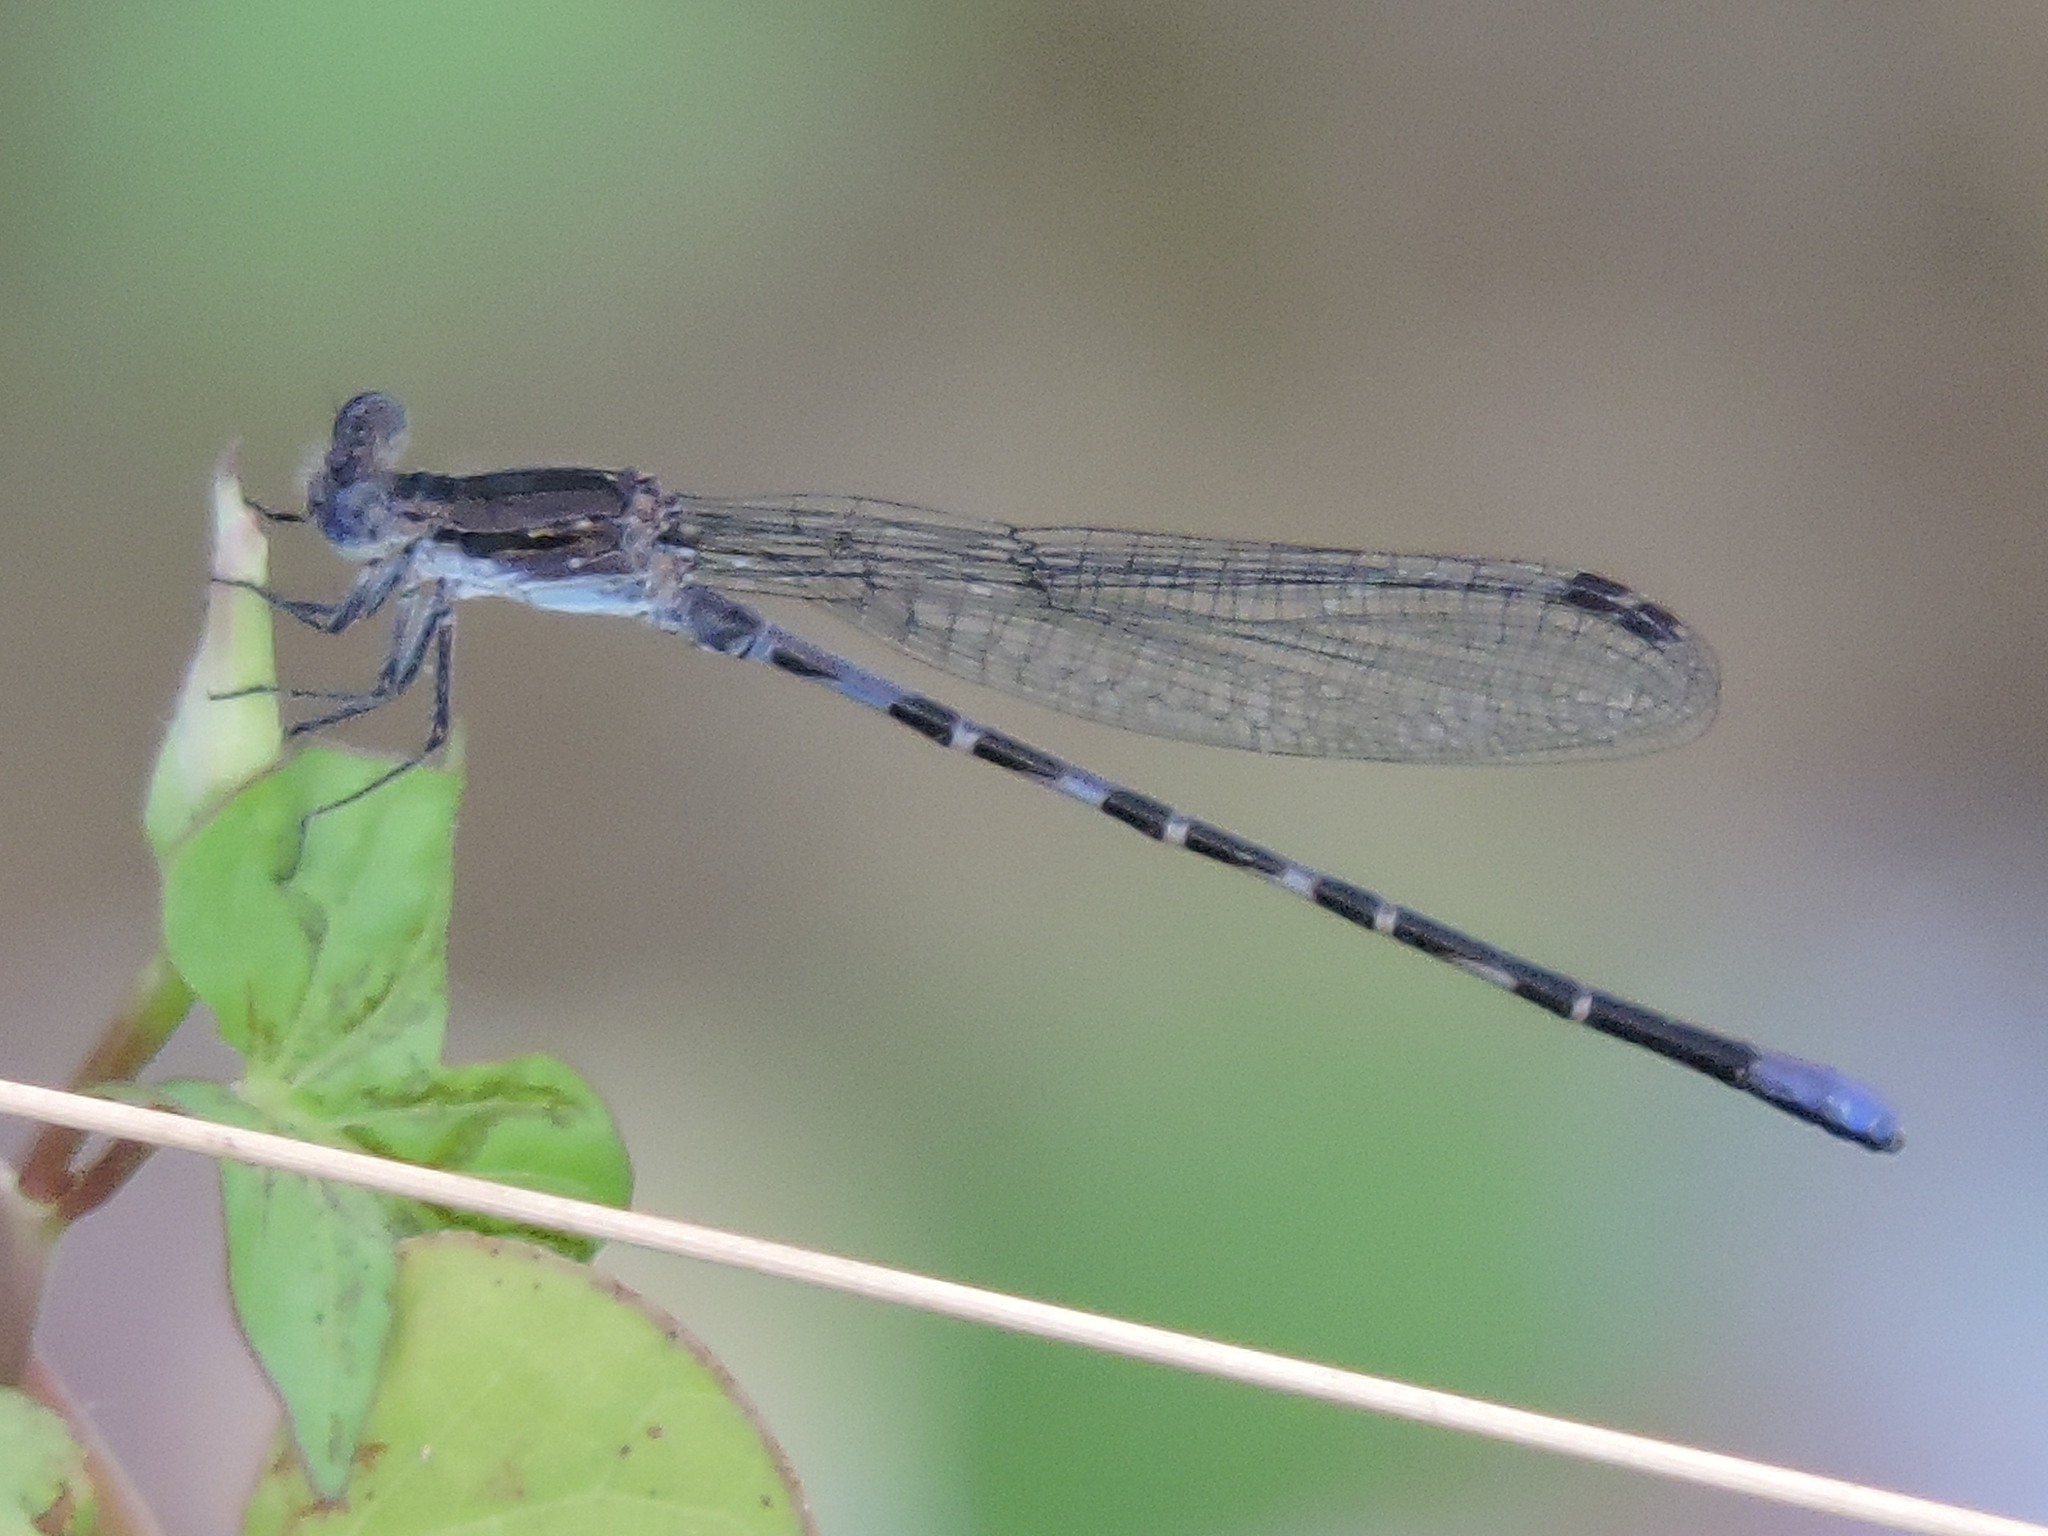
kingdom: Animalia
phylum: Arthropoda
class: Insecta
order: Odonata
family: Coenagrionidae
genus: Argia
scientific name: Argia immunda
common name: Kiowa dancer
